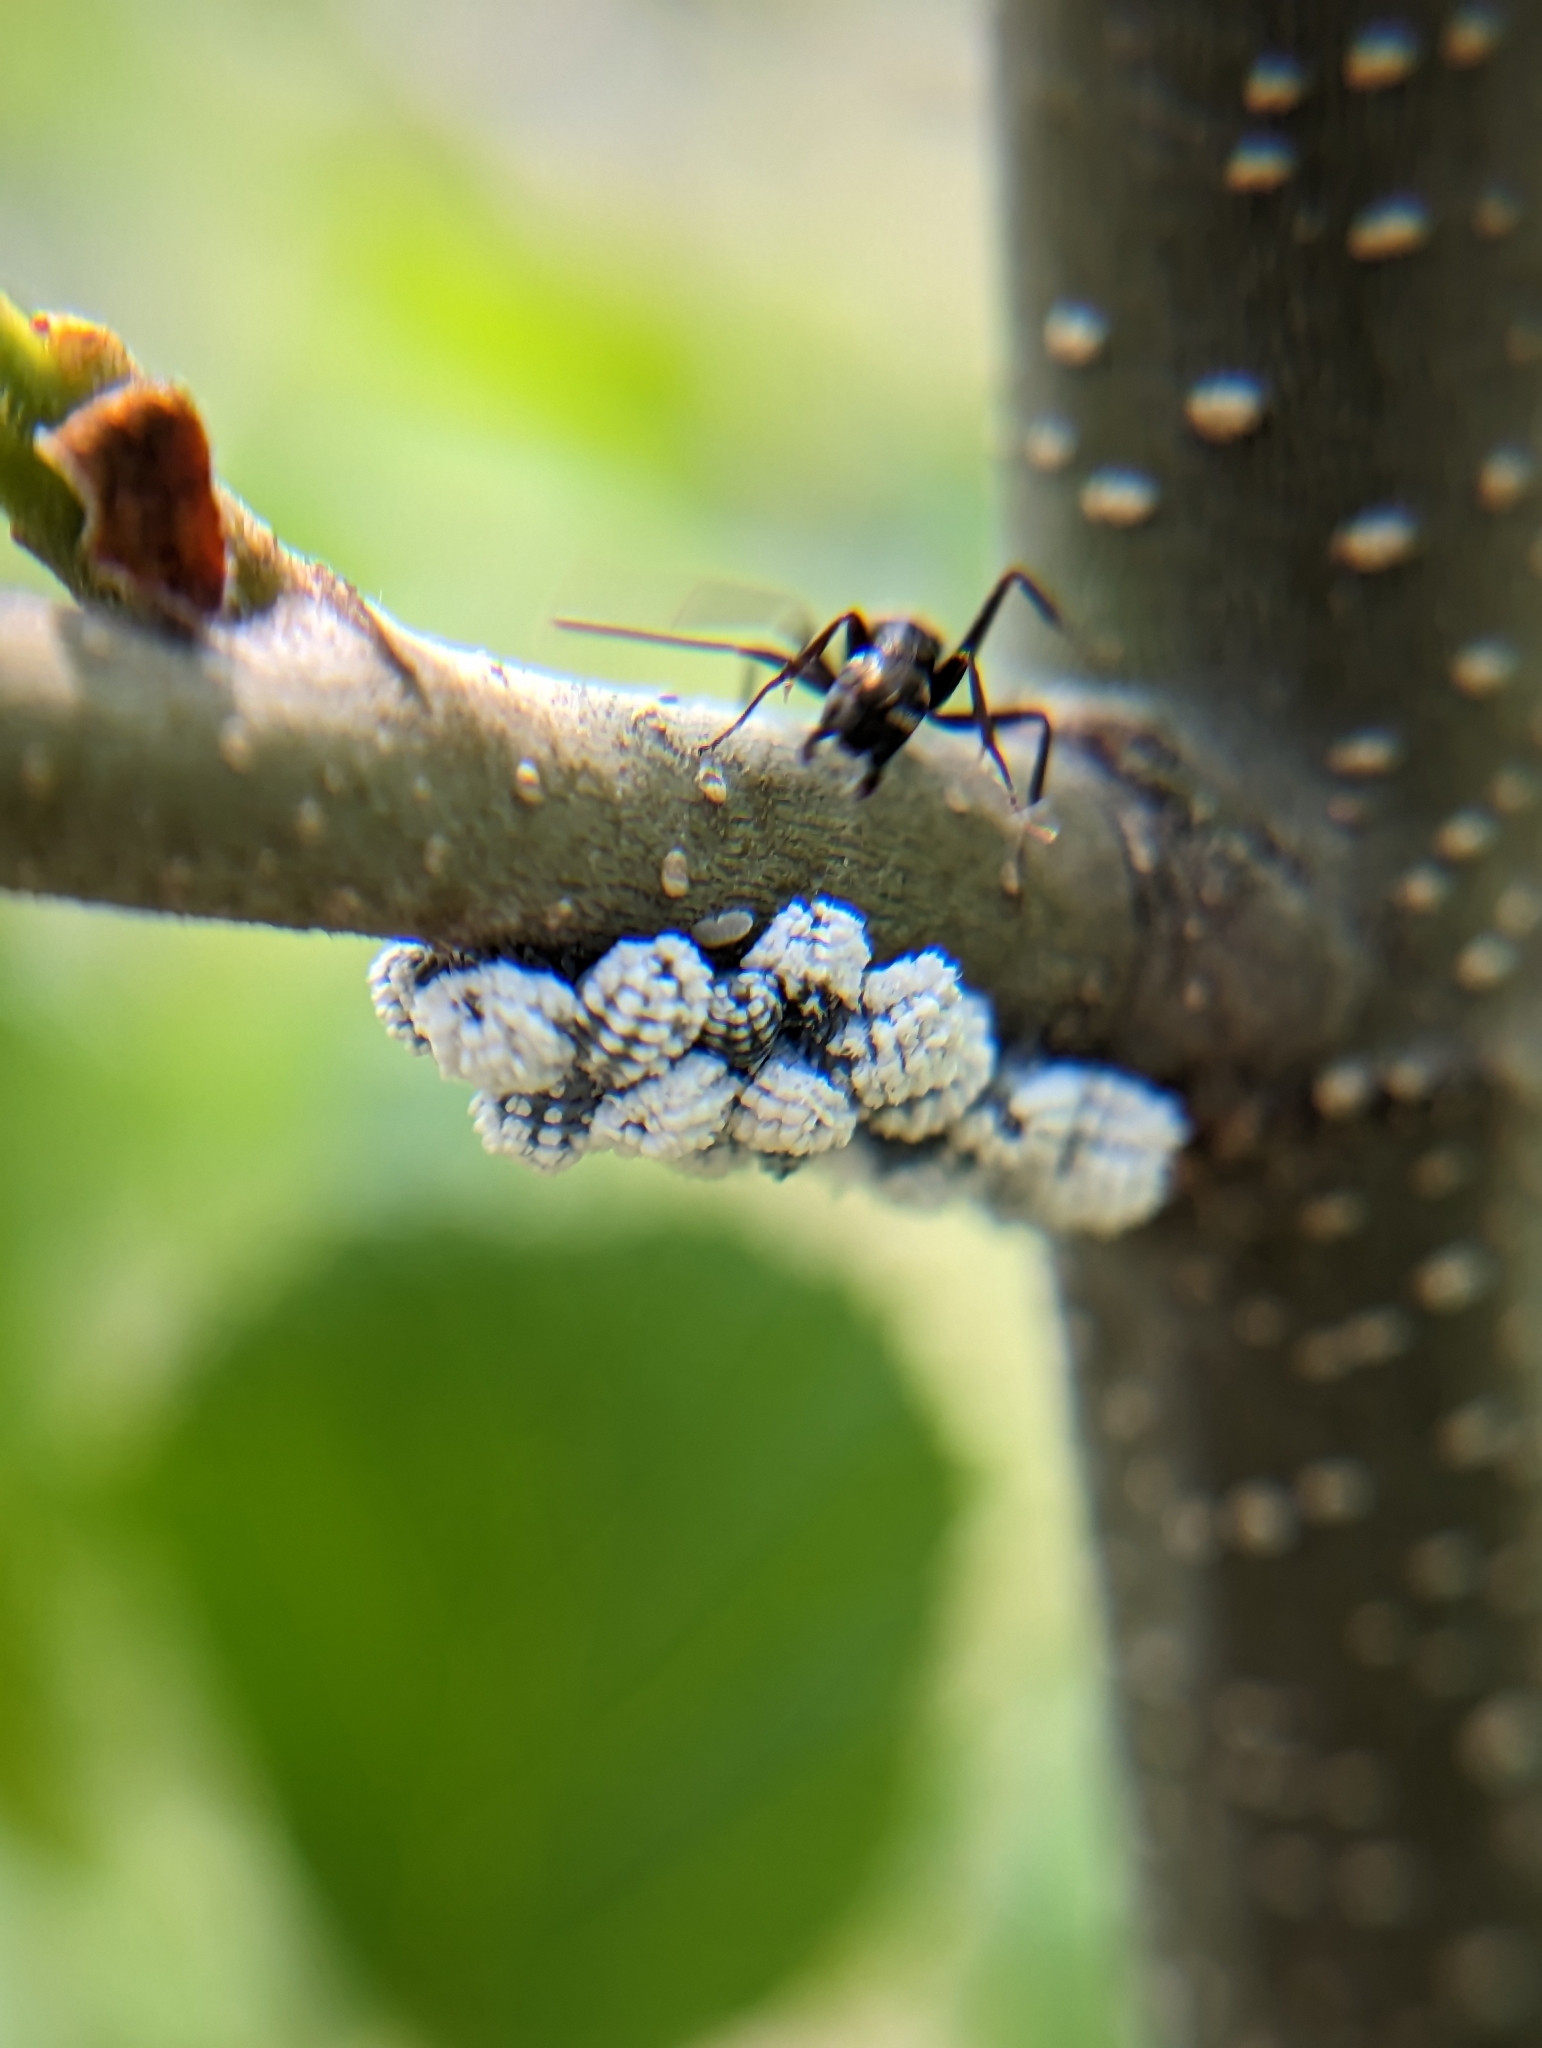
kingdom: Animalia
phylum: Arthropoda
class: Insecta
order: Hemiptera
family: Aphididae
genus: Prociphilus
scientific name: Prociphilus tessellatus
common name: Woolly alder aphid
